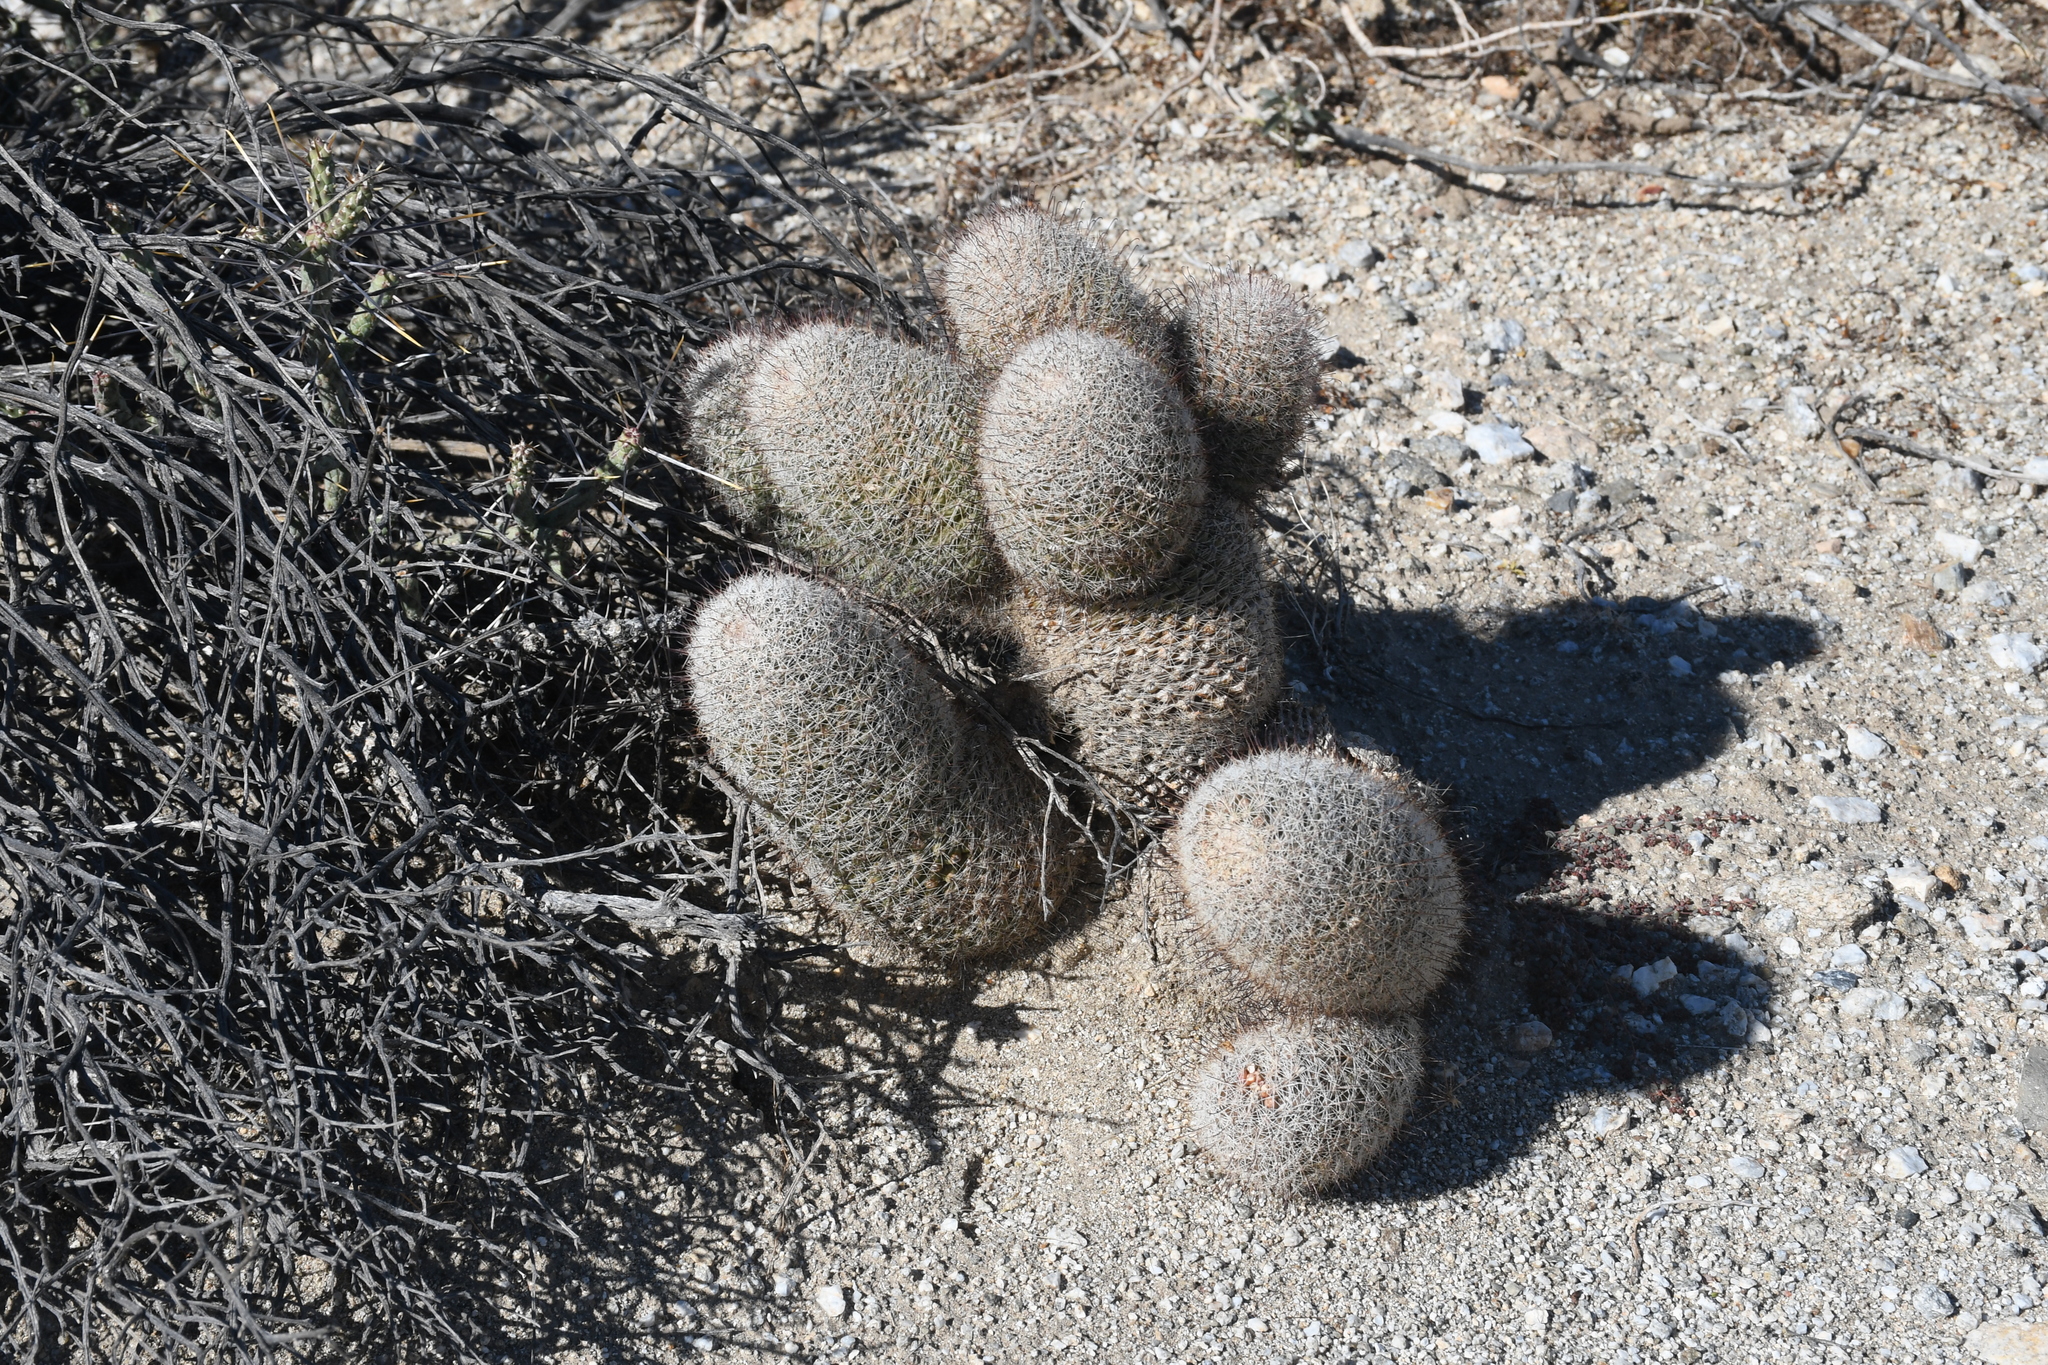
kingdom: Plantae
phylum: Tracheophyta
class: Magnoliopsida
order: Caryophyllales
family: Cactaceae
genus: Cochemiea
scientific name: Cochemiea dioica
